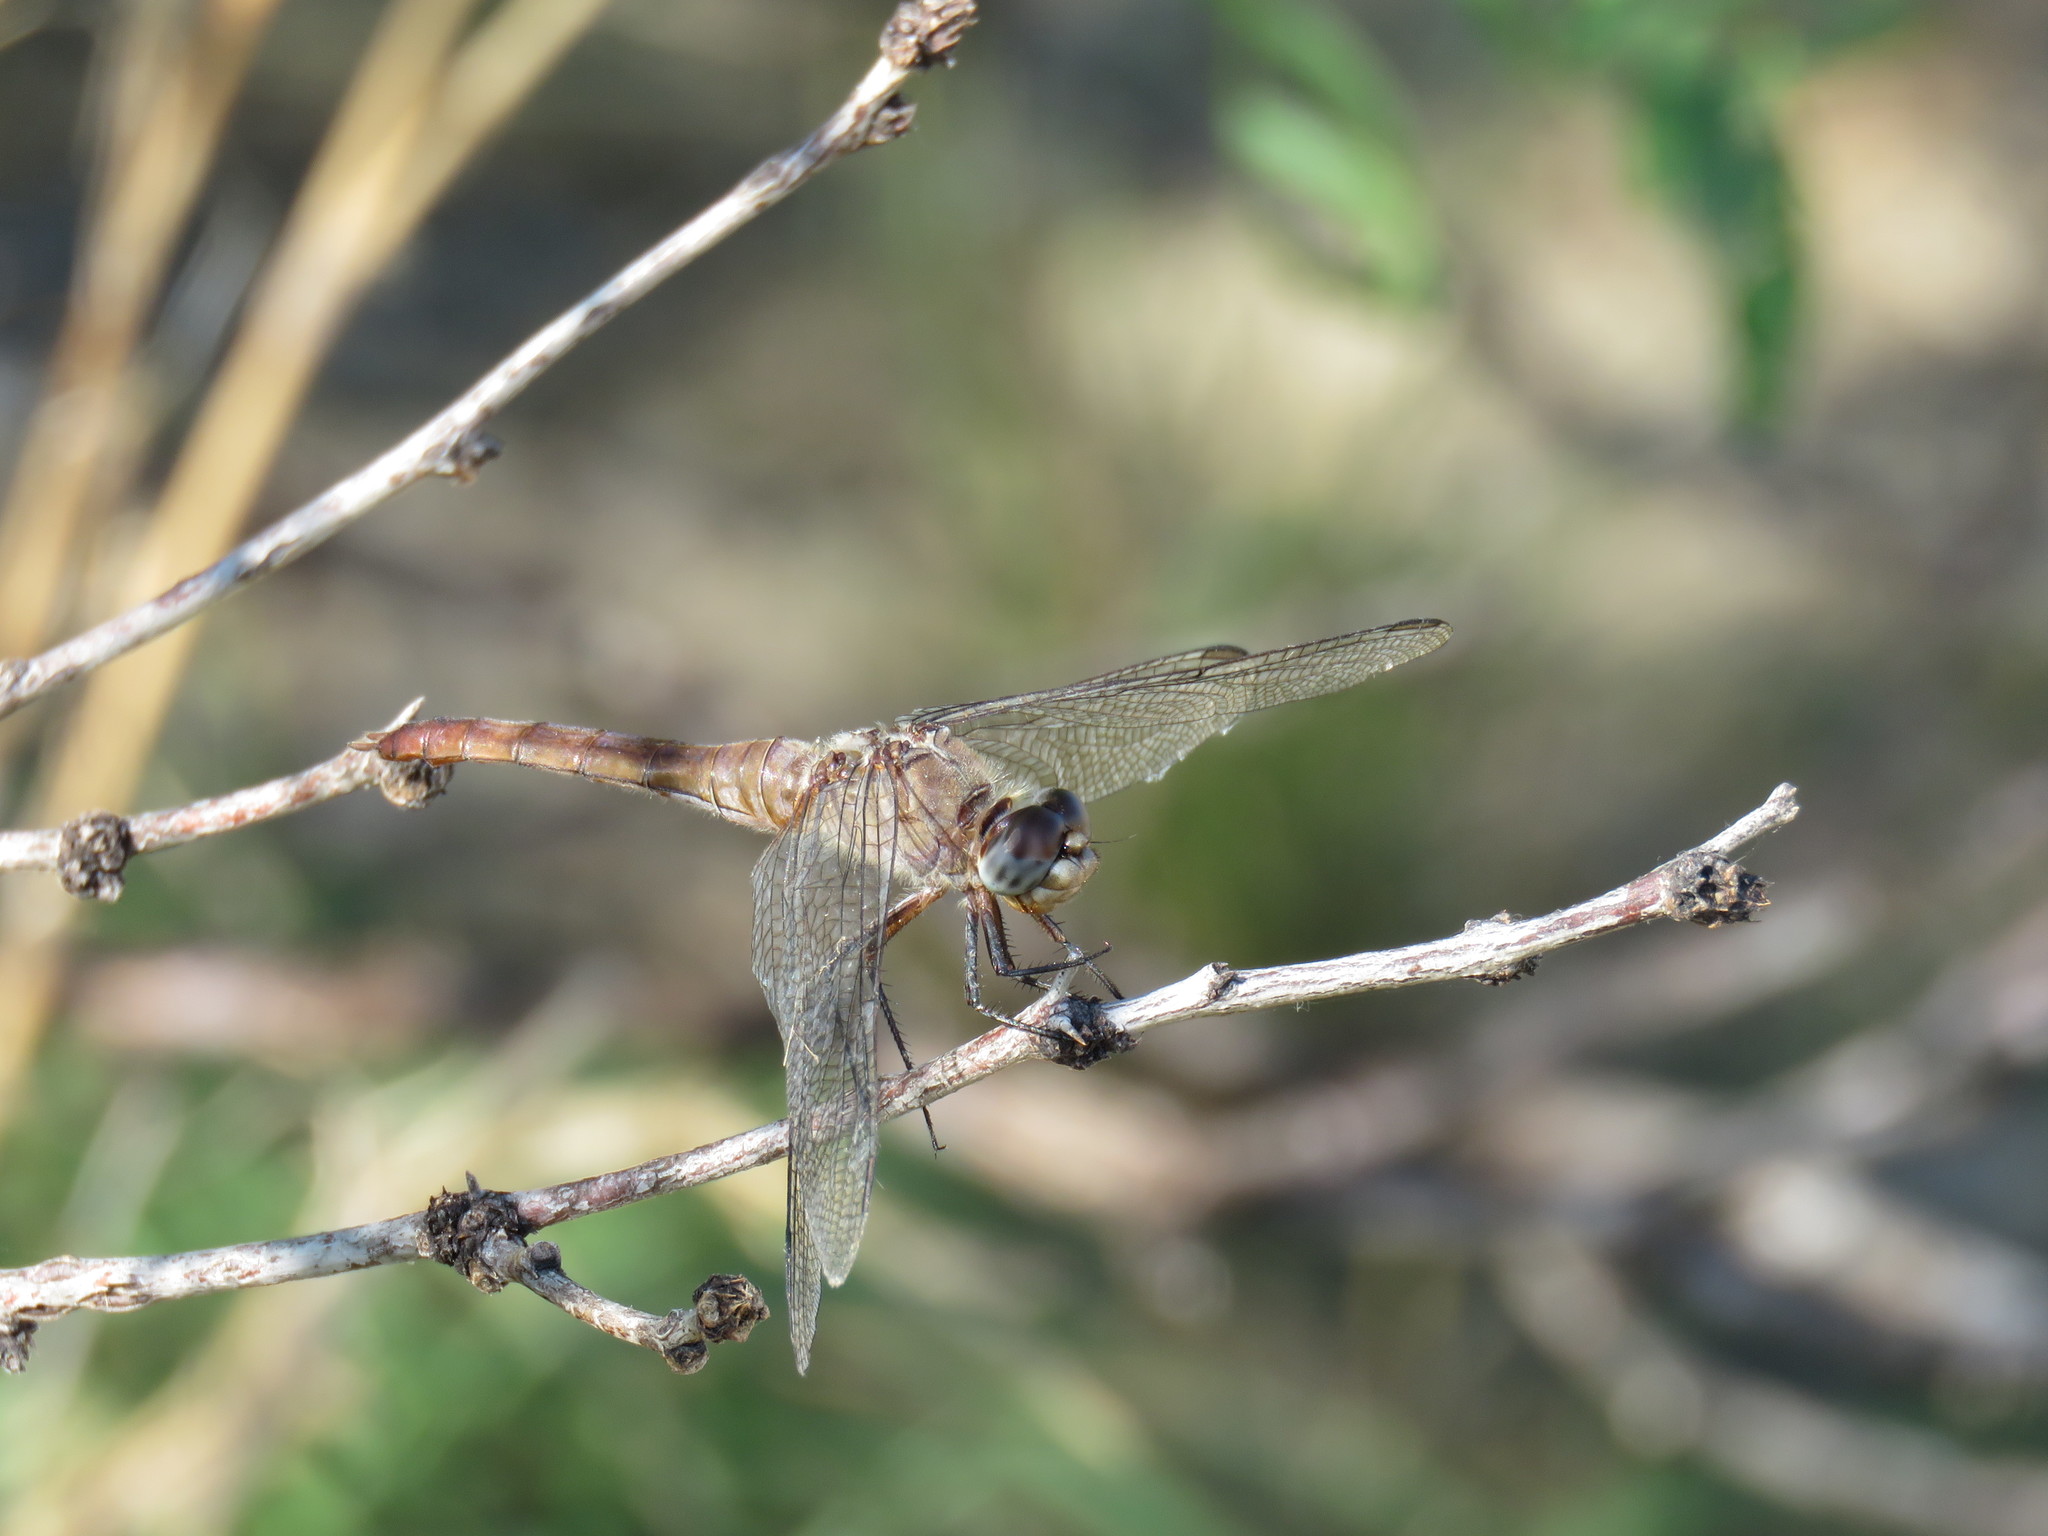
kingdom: Animalia
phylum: Arthropoda
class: Insecta
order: Odonata
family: Libellulidae
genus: Libellula
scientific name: Libellula comanche
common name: Comanche skimmer
